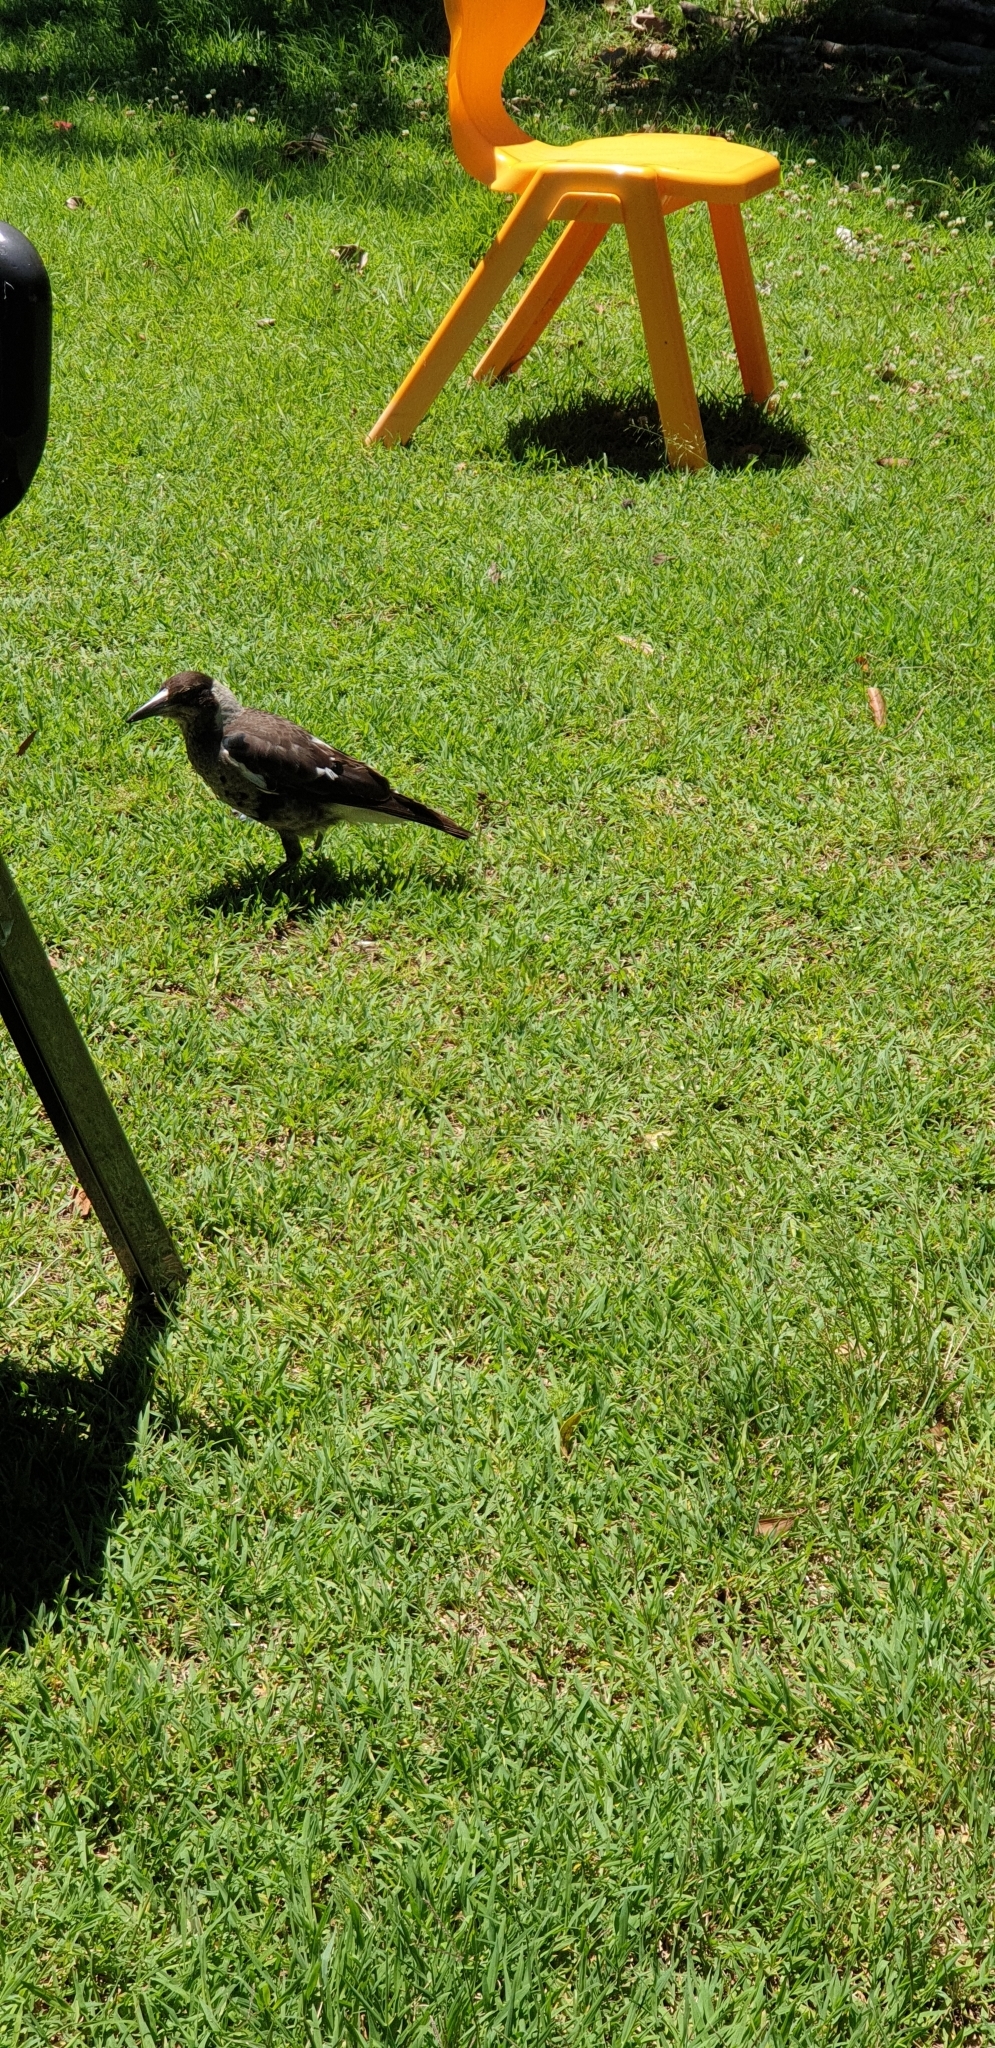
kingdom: Animalia
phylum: Chordata
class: Aves
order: Passeriformes
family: Cracticidae
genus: Gymnorhina
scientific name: Gymnorhina tibicen
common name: Australian magpie
